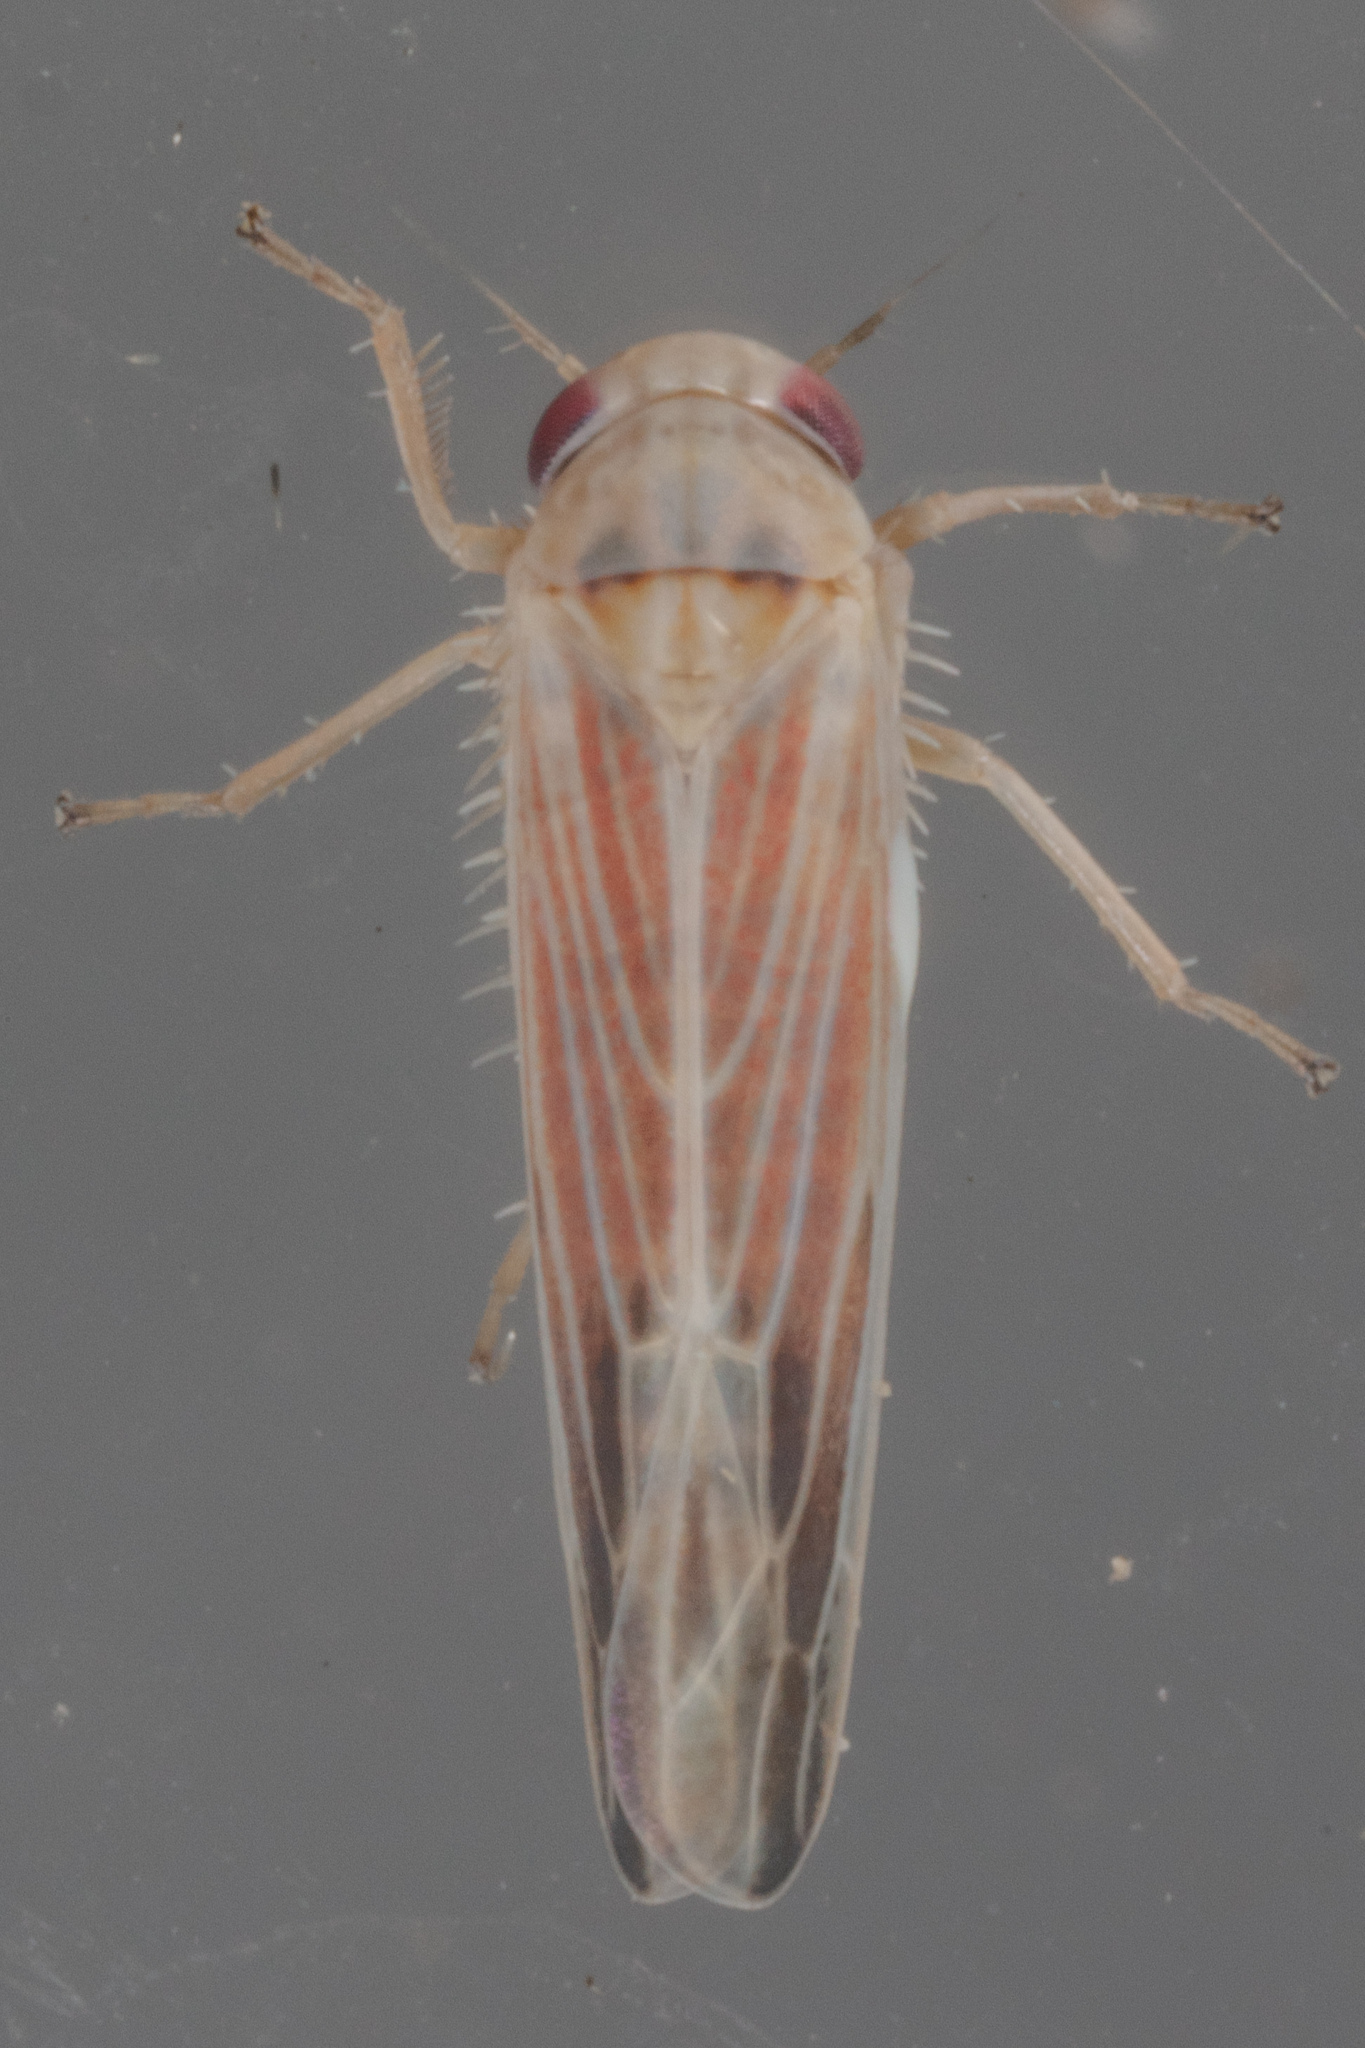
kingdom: Animalia
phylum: Arthropoda
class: Insecta
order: Hemiptera
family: Cicadellidae
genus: Balclutha
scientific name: Balclutha rubrostriata
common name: Red-streaked leafhopper
